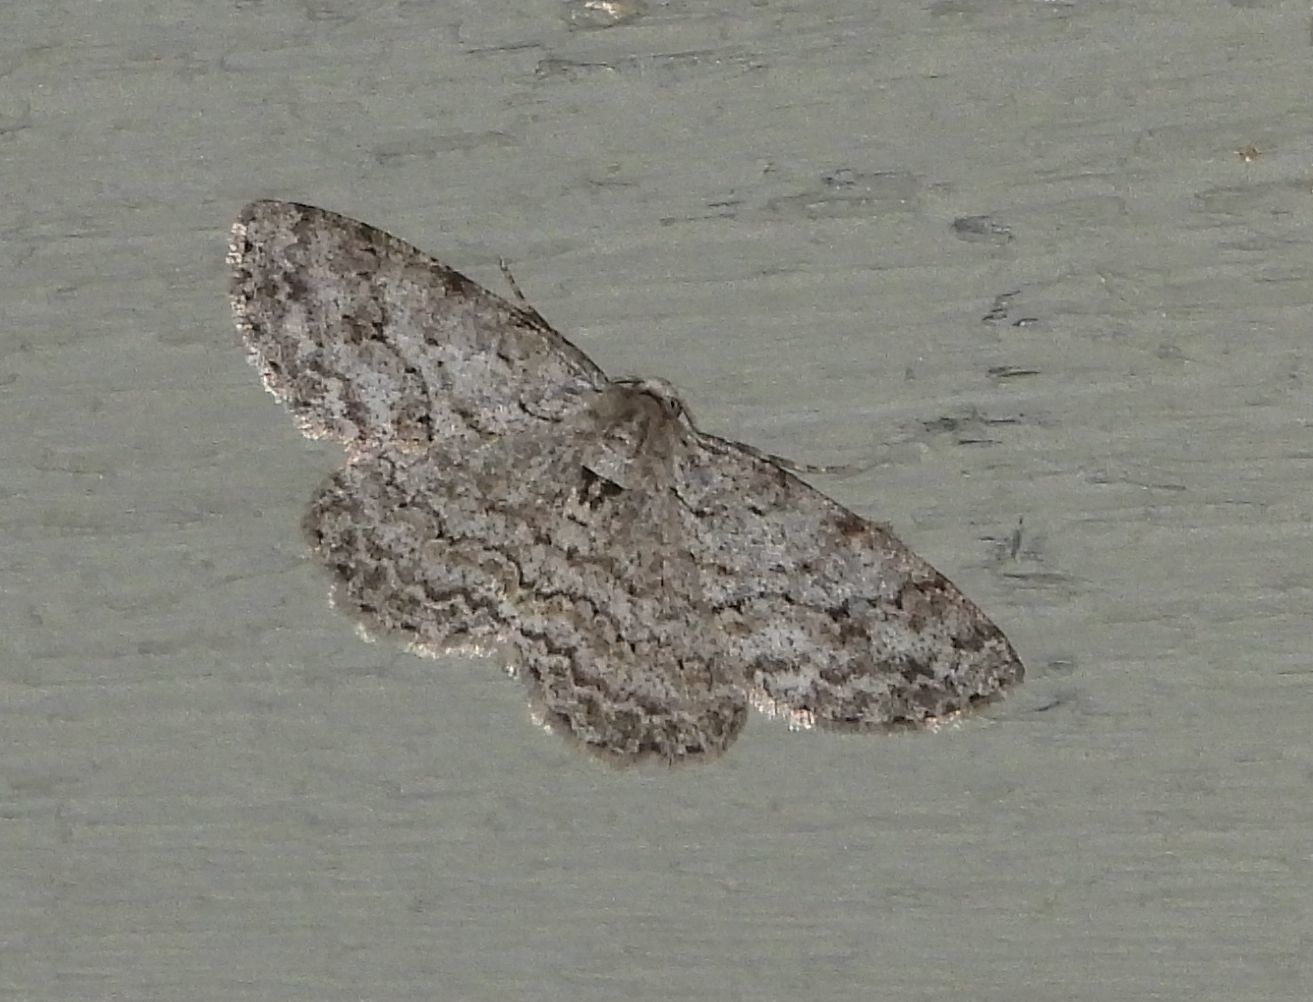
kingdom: Animalia
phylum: Arthropoda
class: Insecta
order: Lepidoptera
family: Geometridae
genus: Ectropis
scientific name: Ectropis crepuscularia
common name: Engrailed
